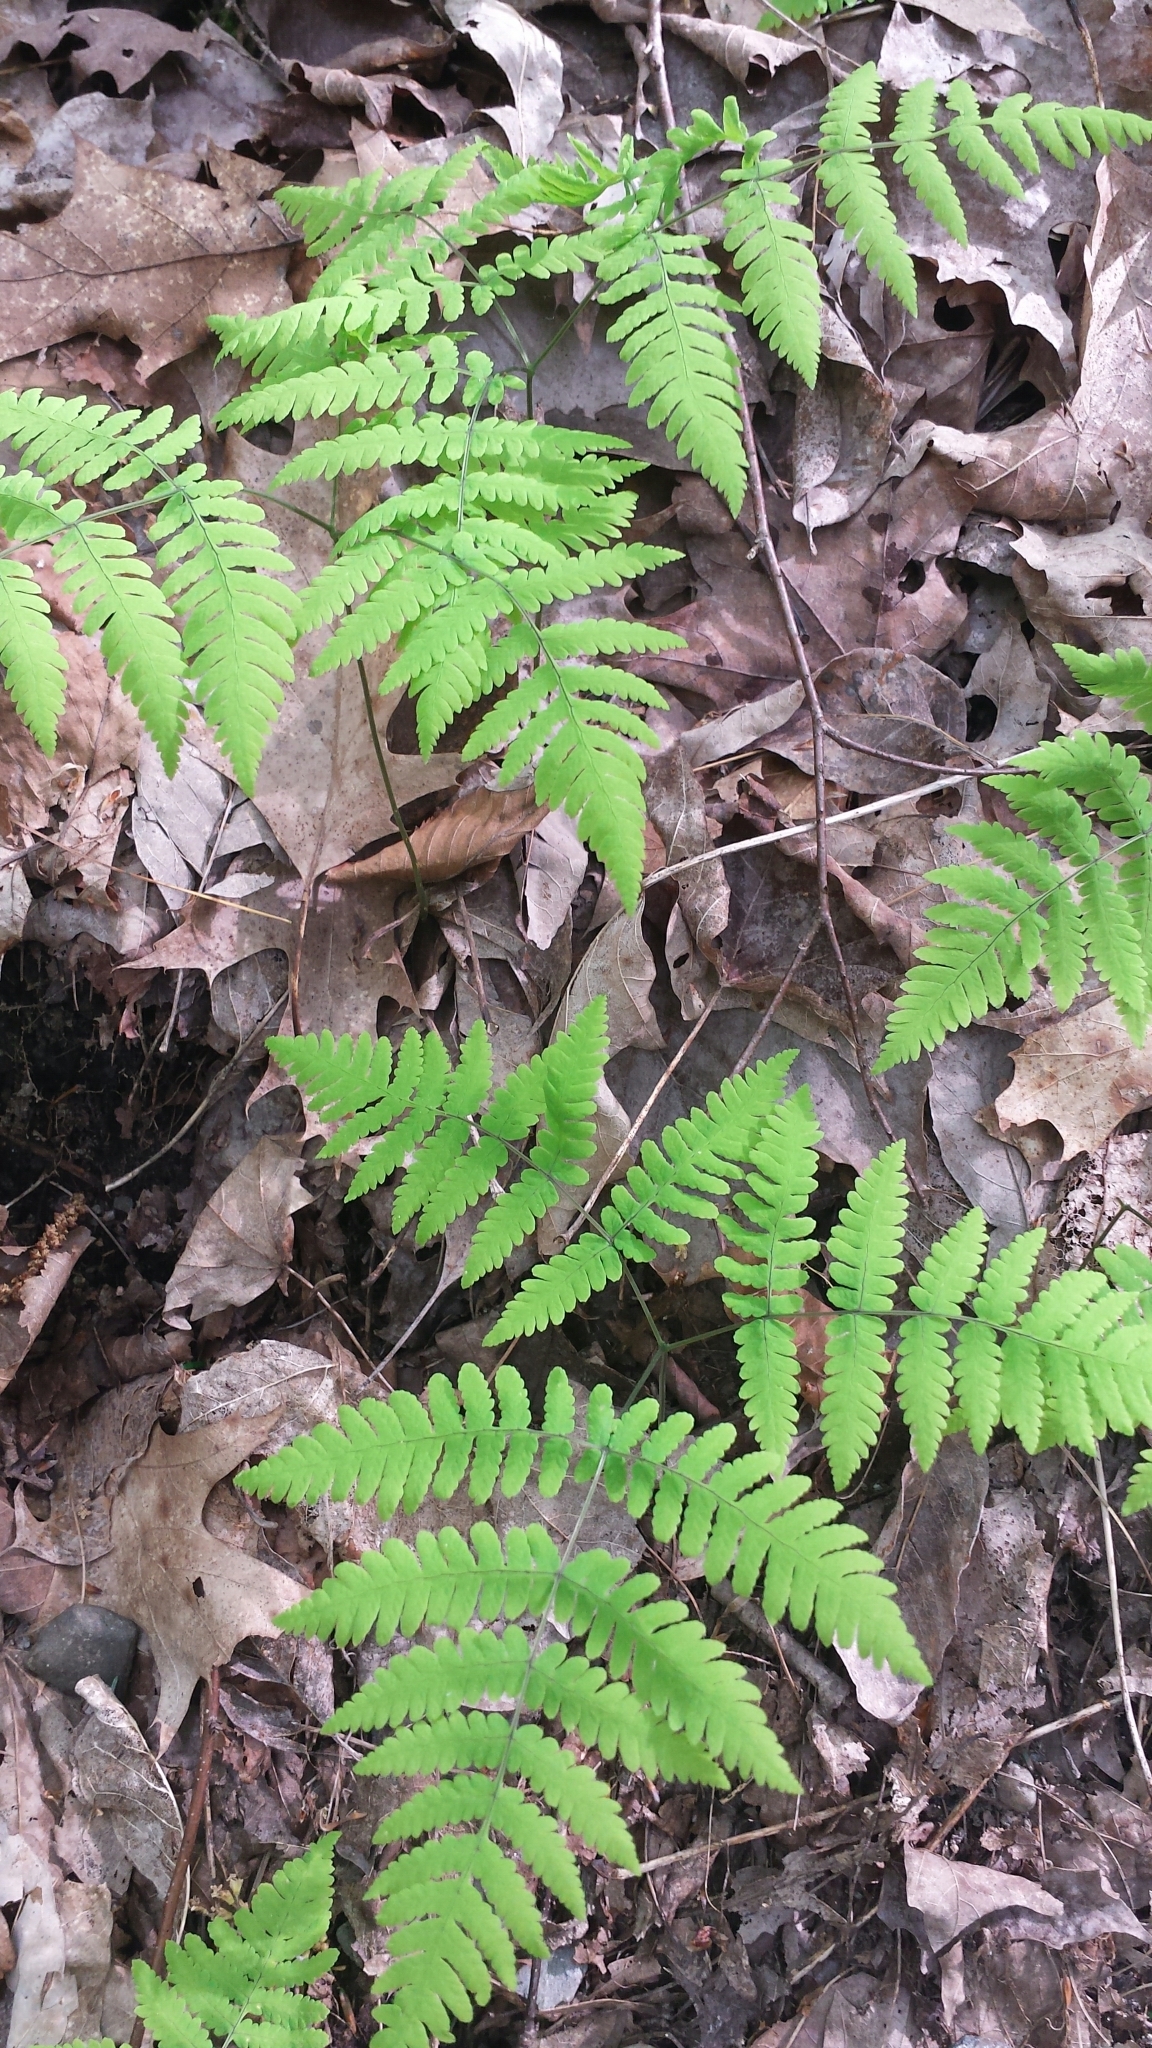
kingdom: Plantae
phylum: Tracheophyta
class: Polypodiopsida
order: Polypodiales
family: Cystopteridaceae
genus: Gymnocarpium
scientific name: Gymnocarpium dryopteris
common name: Oak fern
